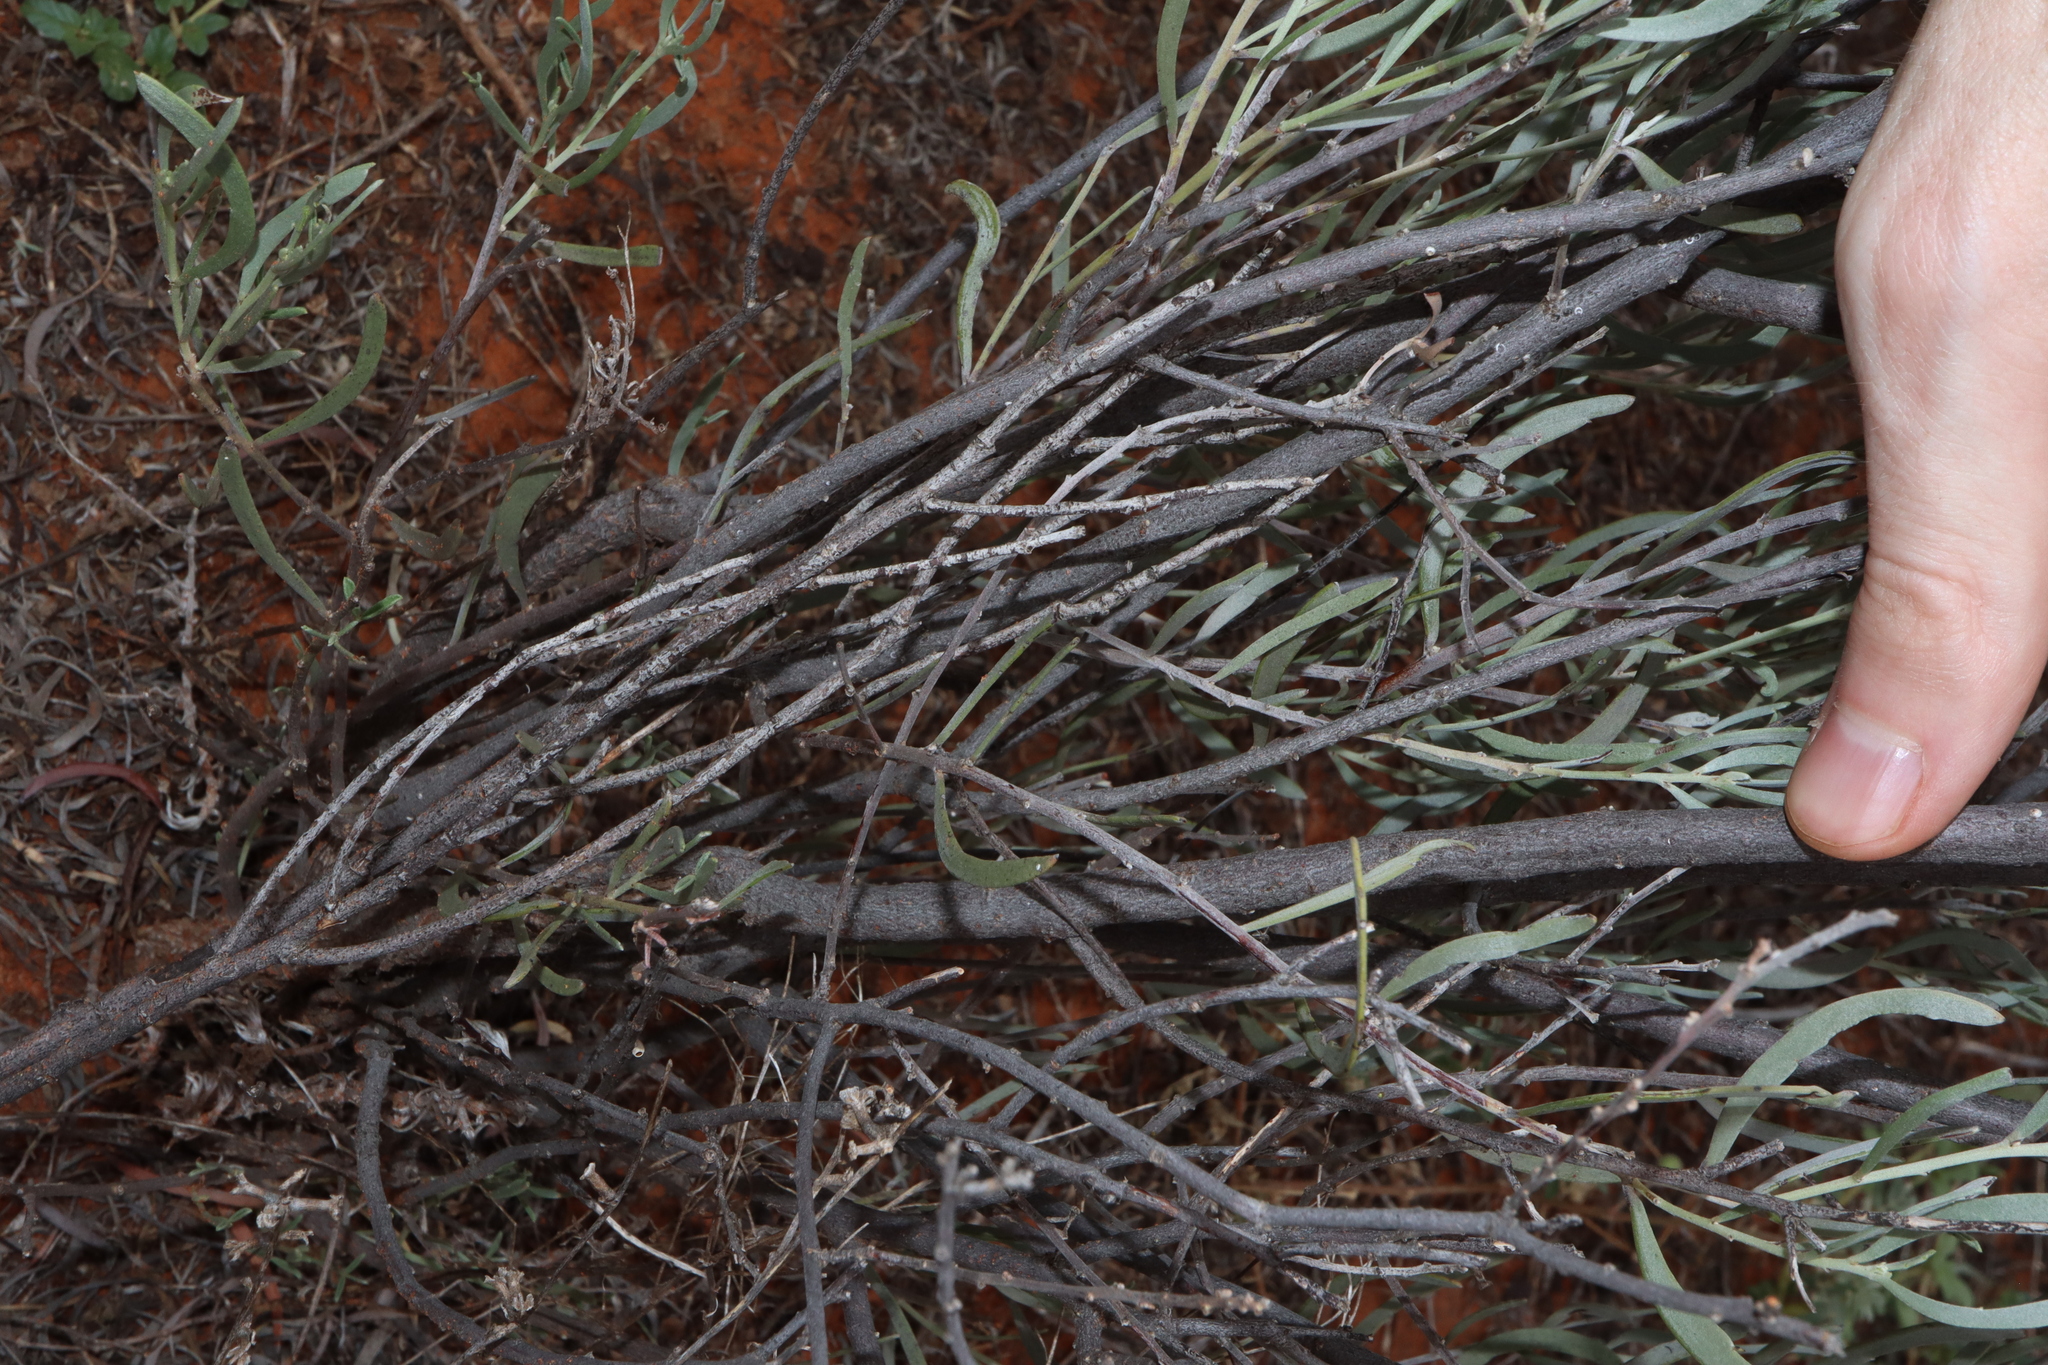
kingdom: Plantae
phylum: Tracheophyta
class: Magnoliopsida
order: Fabales
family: Fabaceae
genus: Senna
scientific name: Senna phyllodinea
